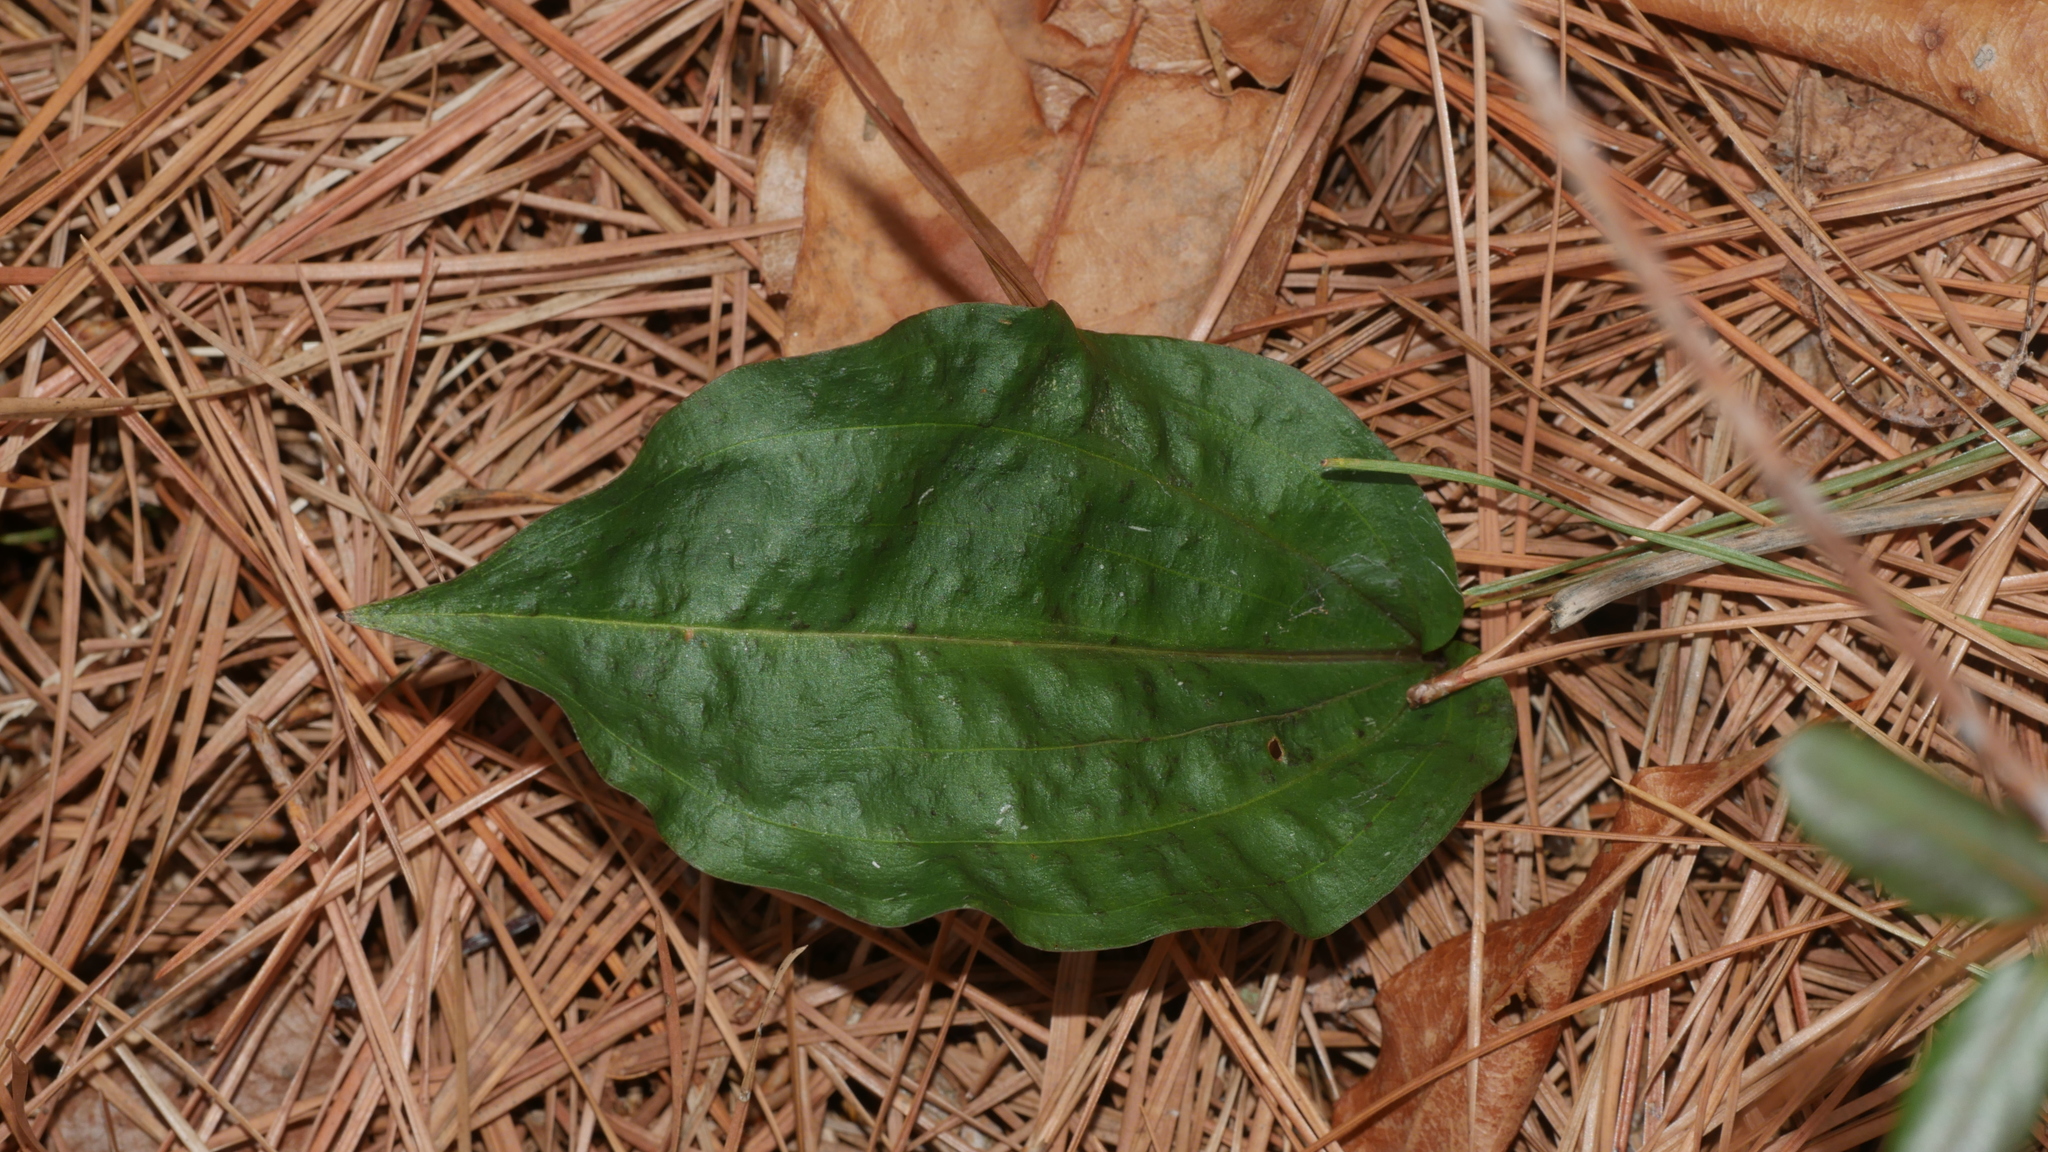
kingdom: Plantae
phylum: Tracheophyta
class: Liliopsida
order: Asparagales
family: Orchidaceae
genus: Tipularia
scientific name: Tipularia discolor
